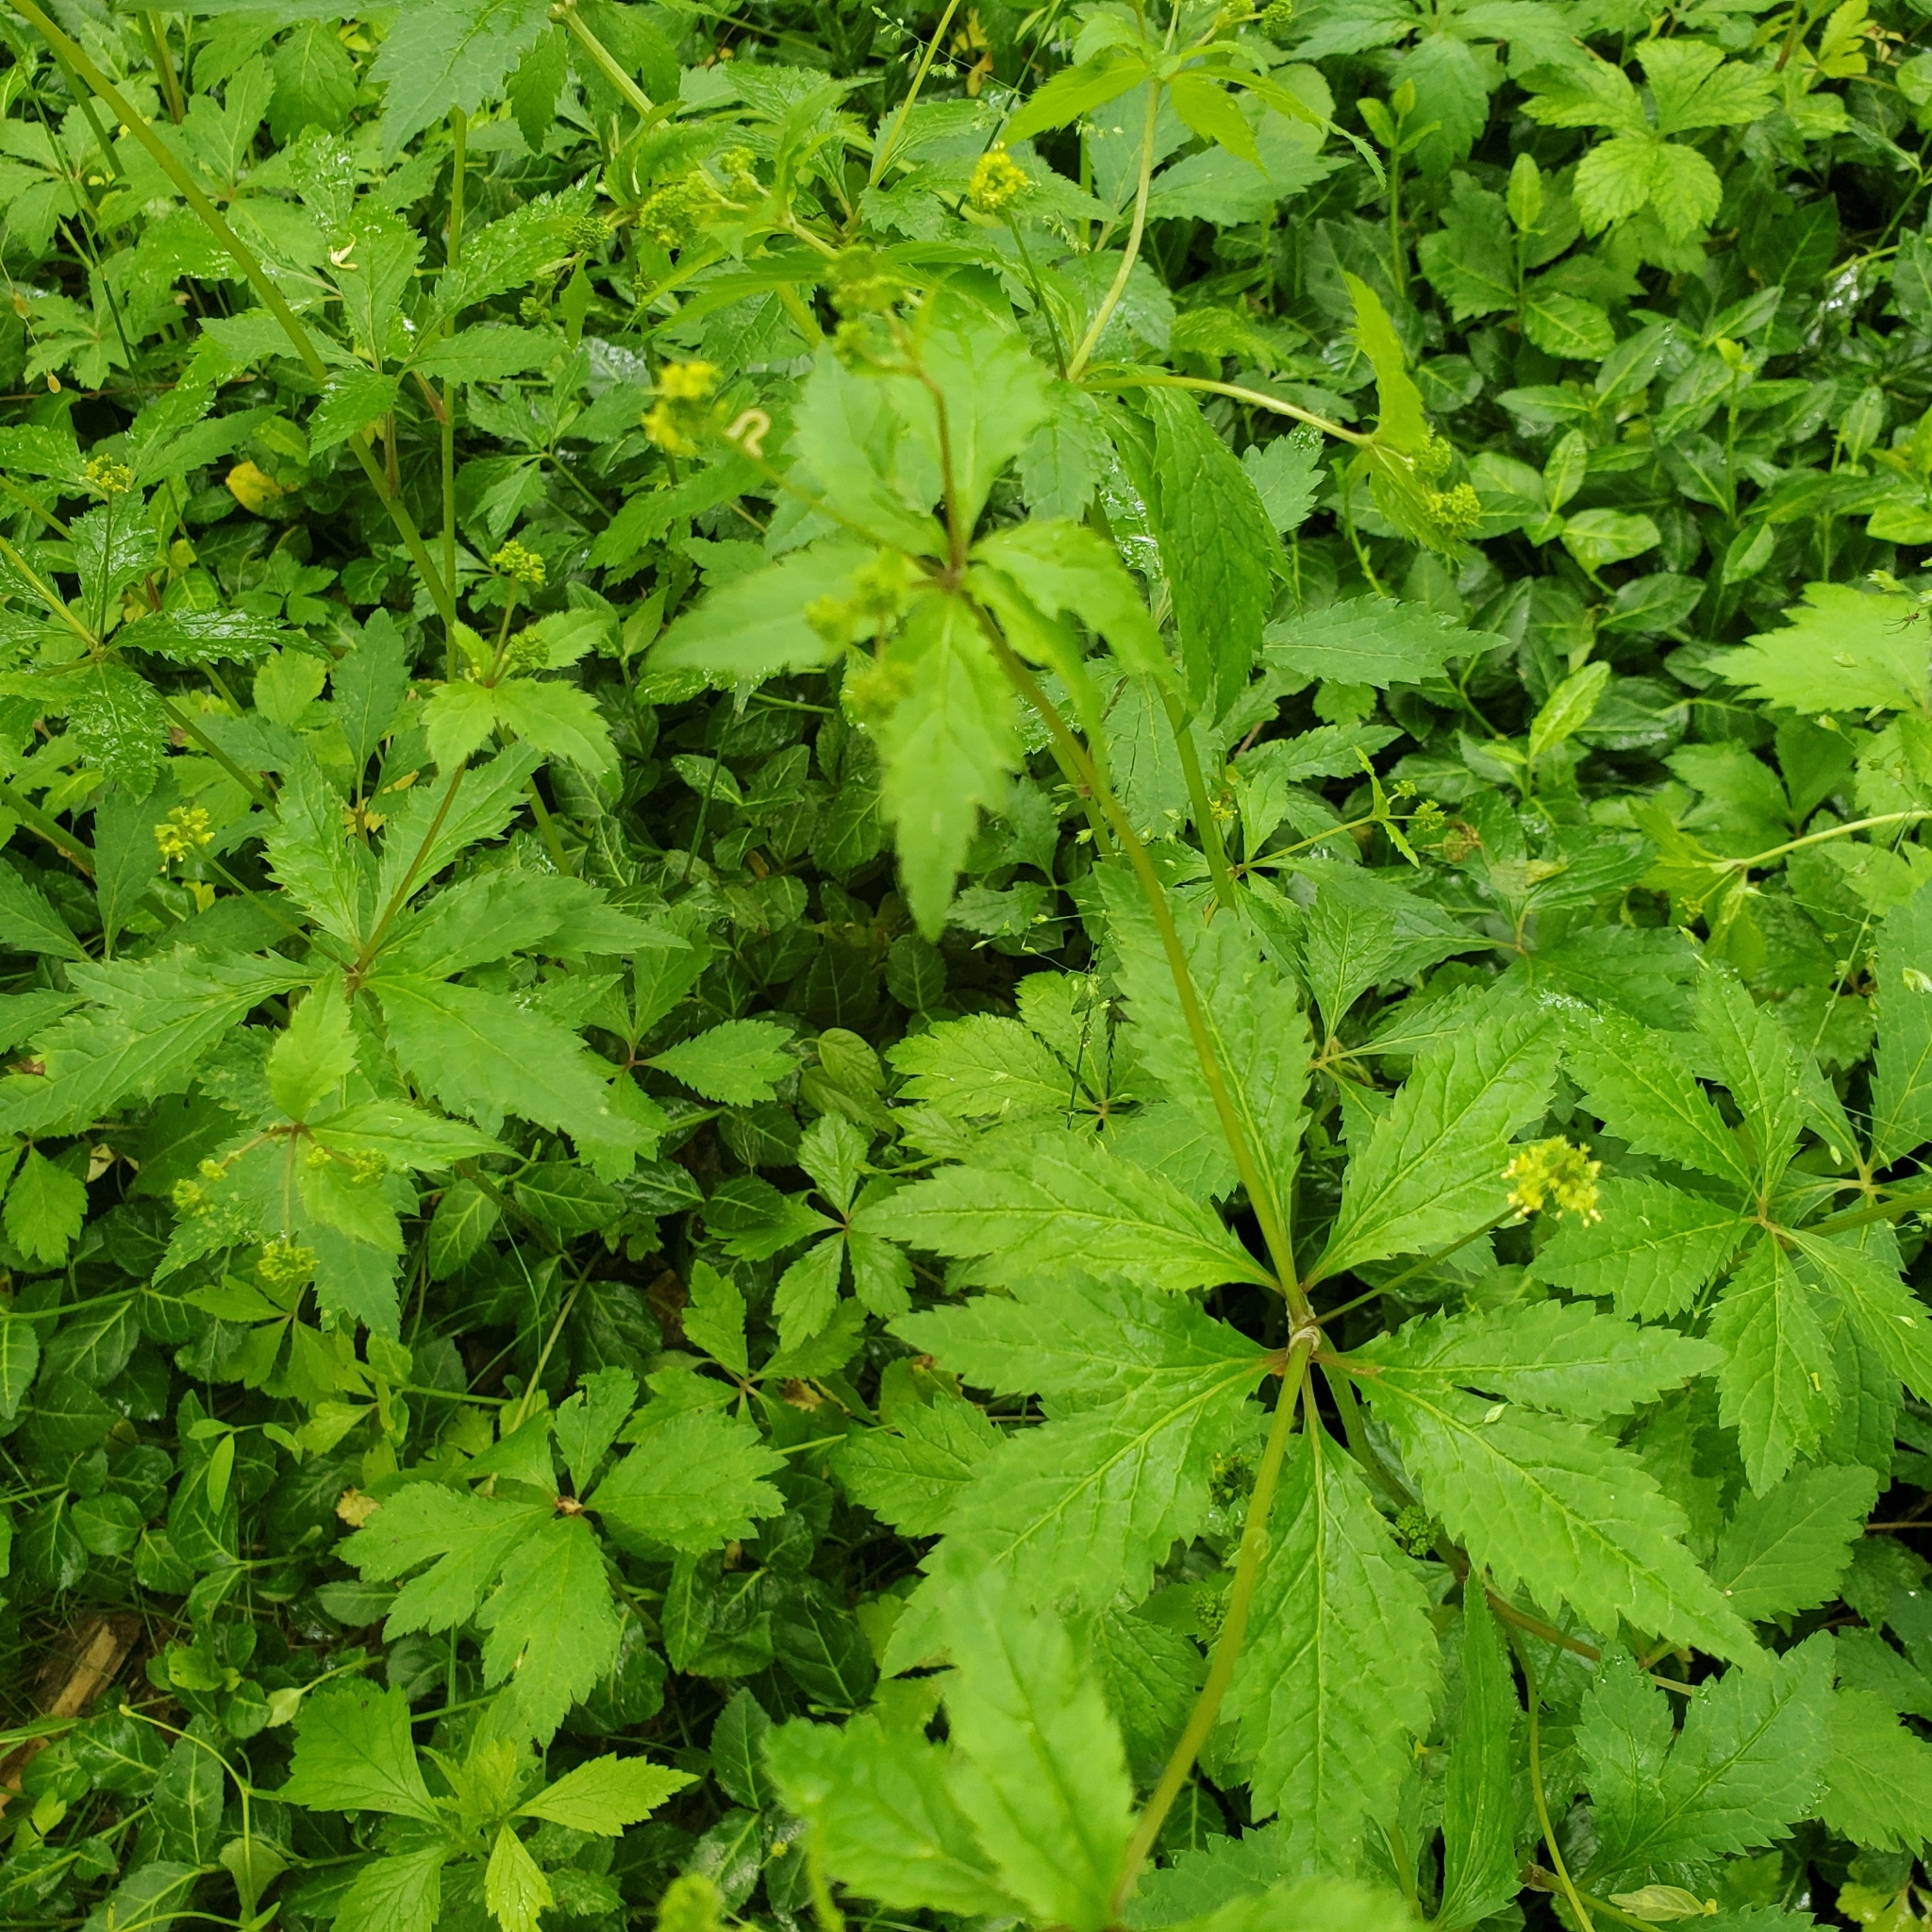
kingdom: Plantae
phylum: Tracheophyta
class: Magnoliopsida
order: Apiales
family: Apiaceae
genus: Sanicula
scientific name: Sanicula odorata
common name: Cluster sanicle
